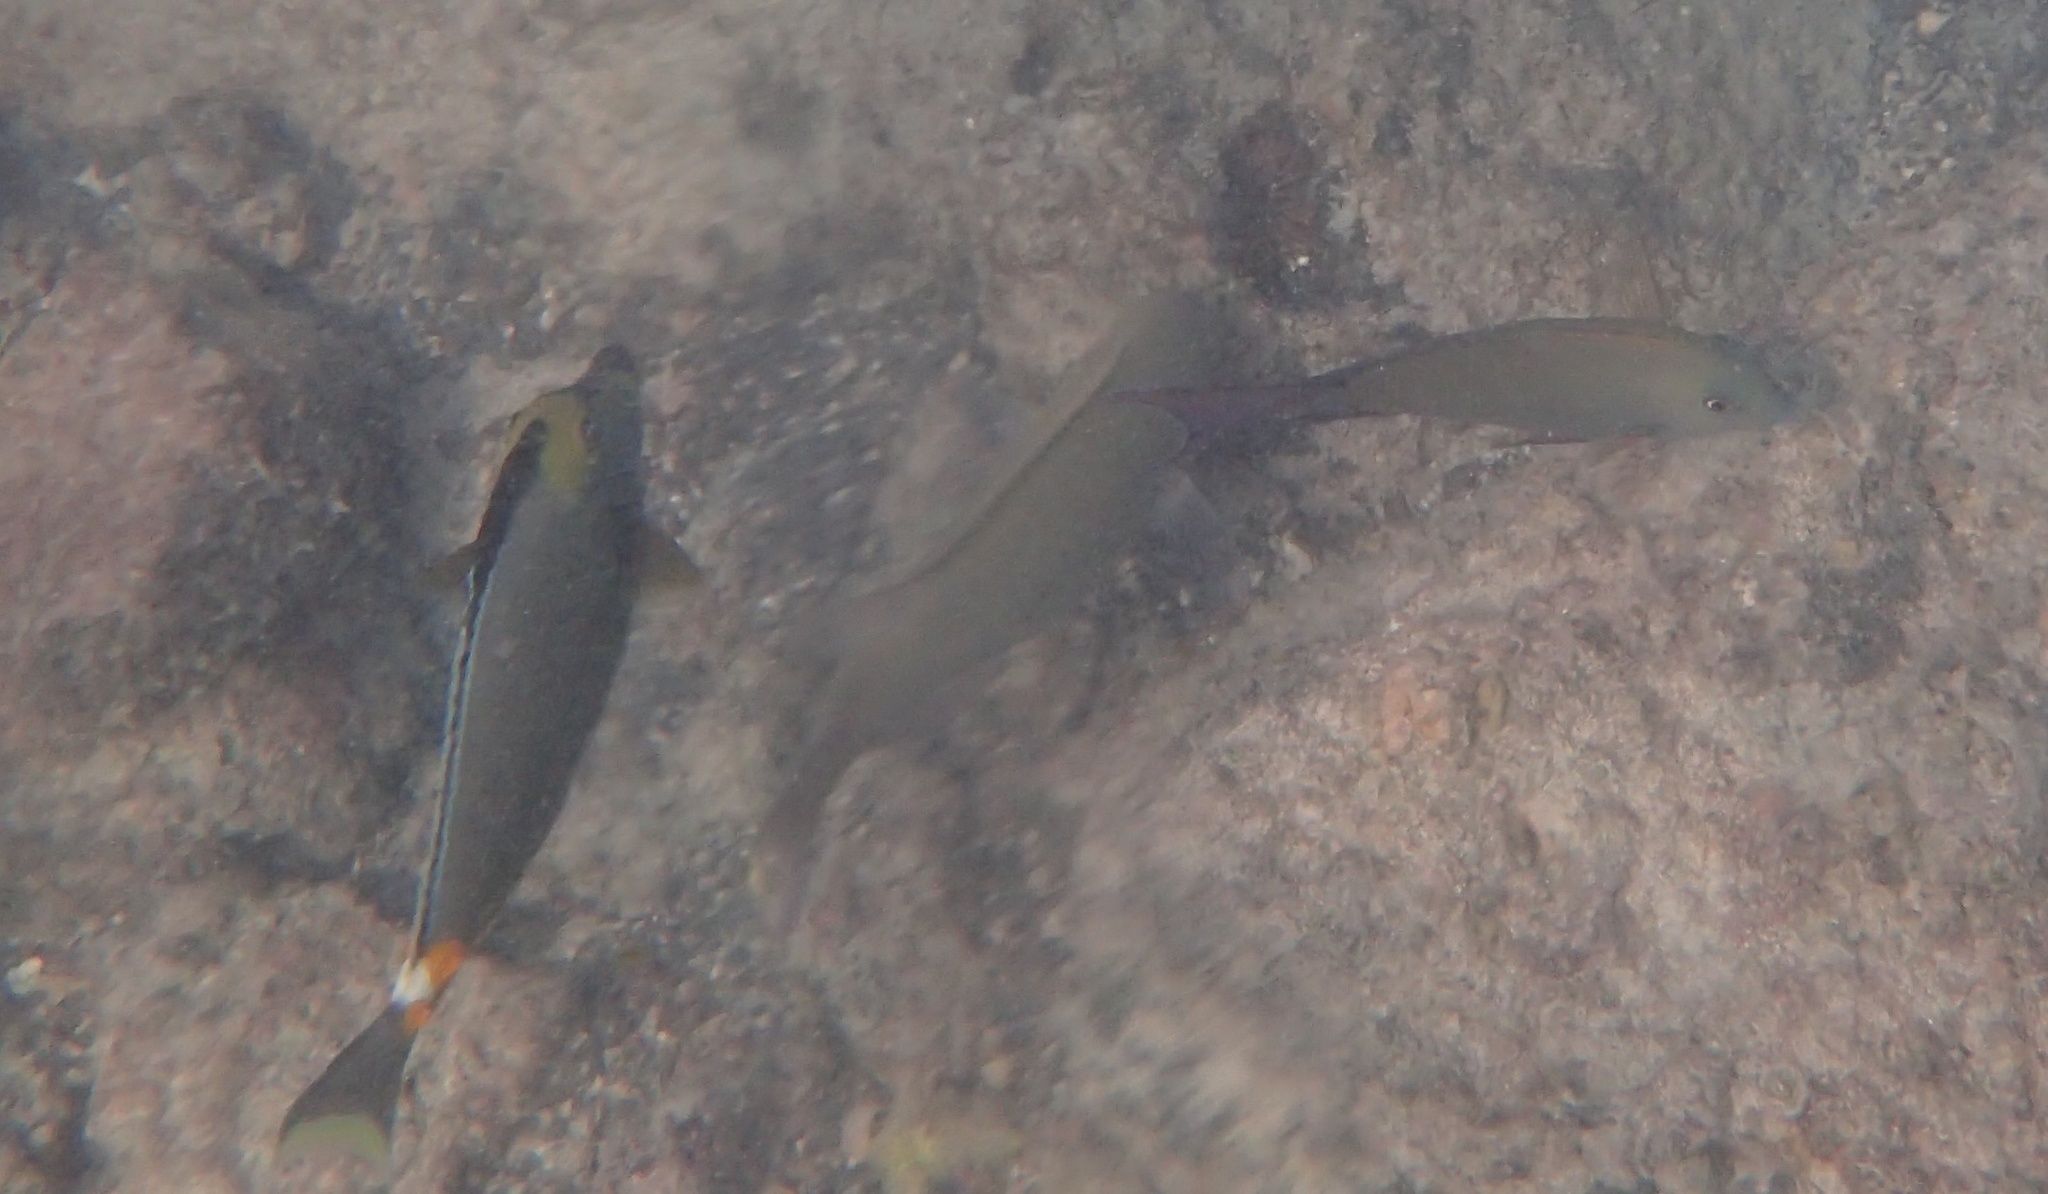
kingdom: Animalia
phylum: Chordata
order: Perciformes
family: Acanthuridae
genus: Naso
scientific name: Naso lituratus
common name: Orangespine unicornfish
